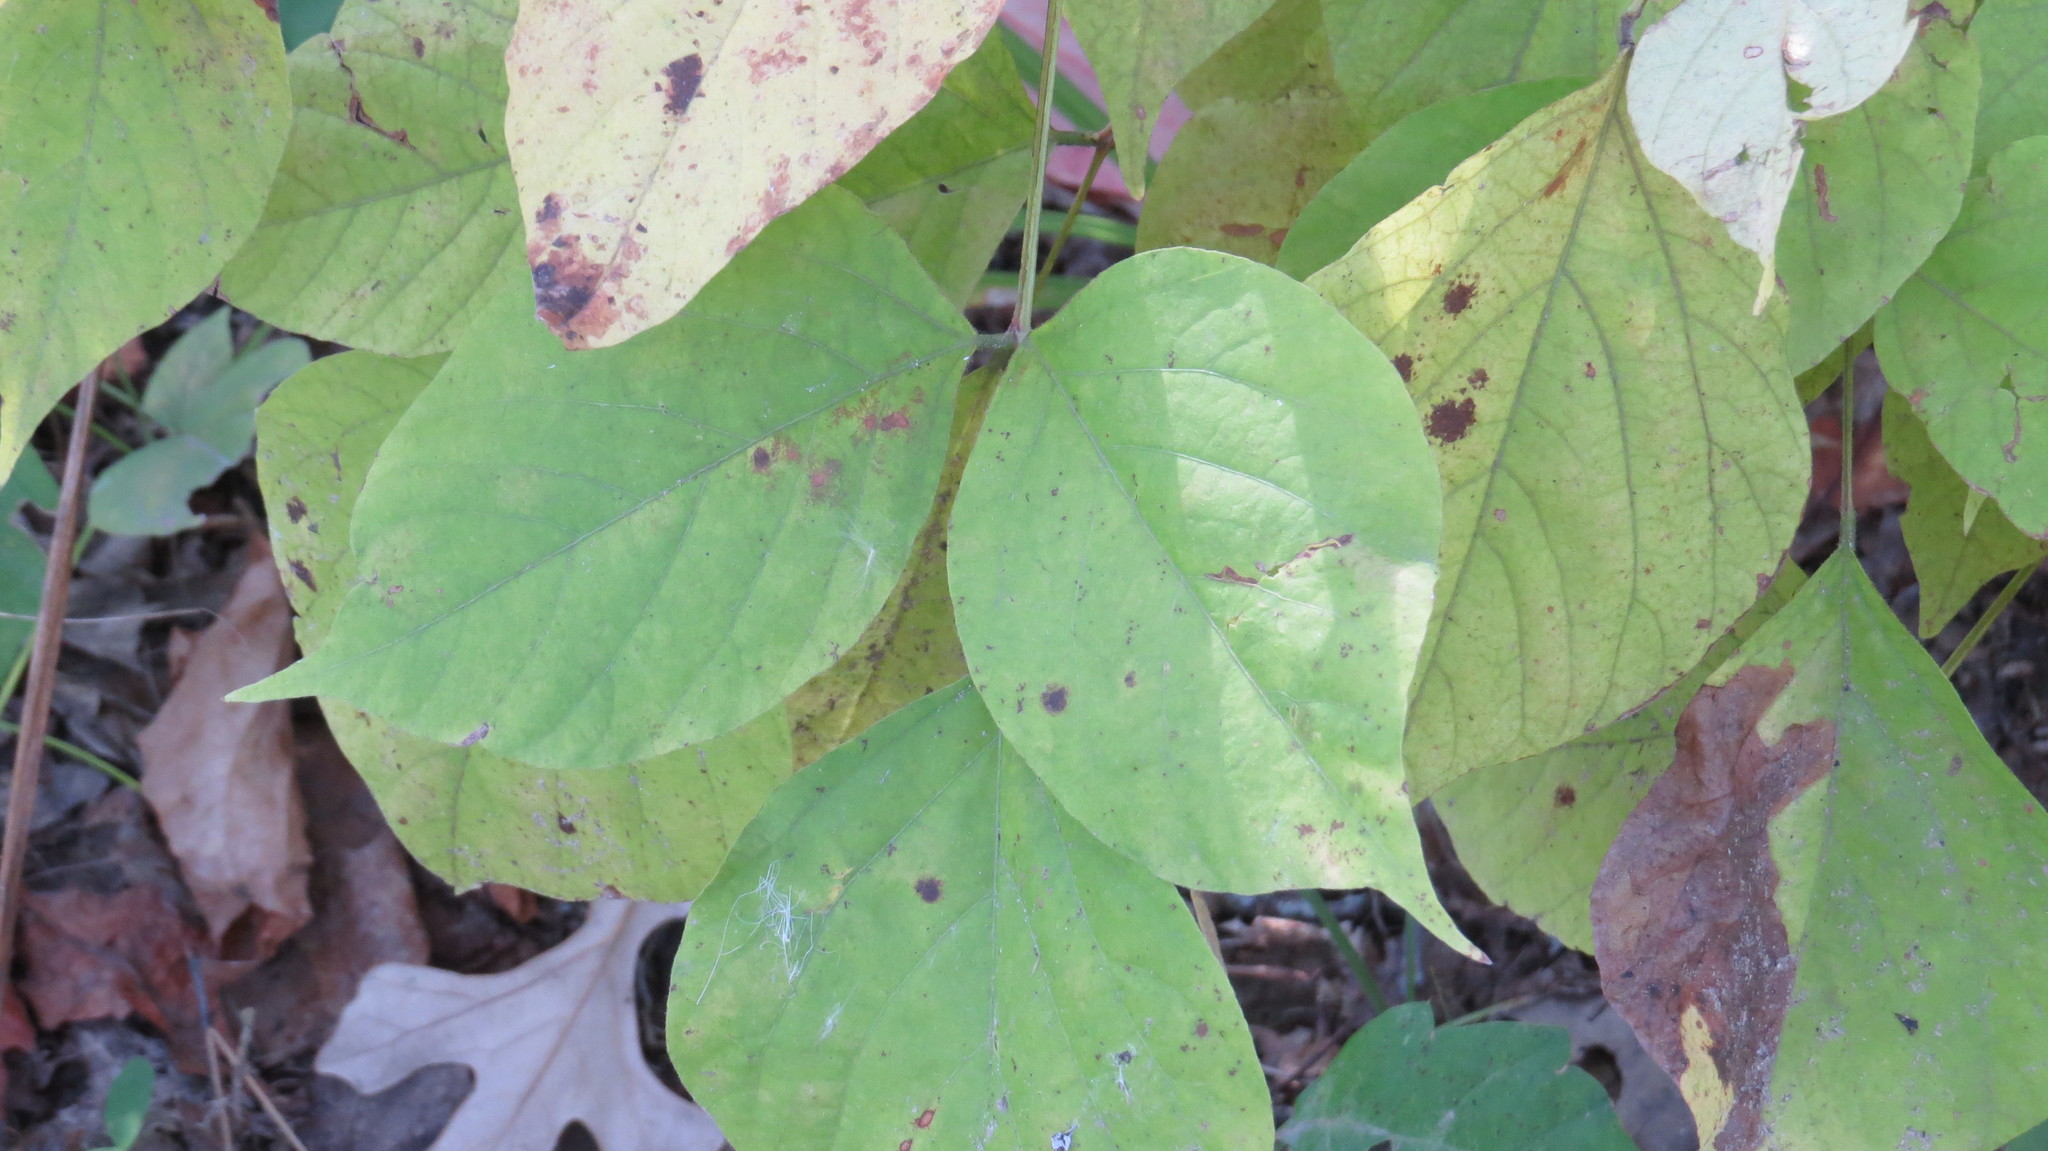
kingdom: Plantae
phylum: Tracheophyta
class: Magnoliopsida
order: Fabales
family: Fabaceae
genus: Hylodesmum
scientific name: Hylodesmum glutinosum
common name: Clustered-leaved tick-trefoil
